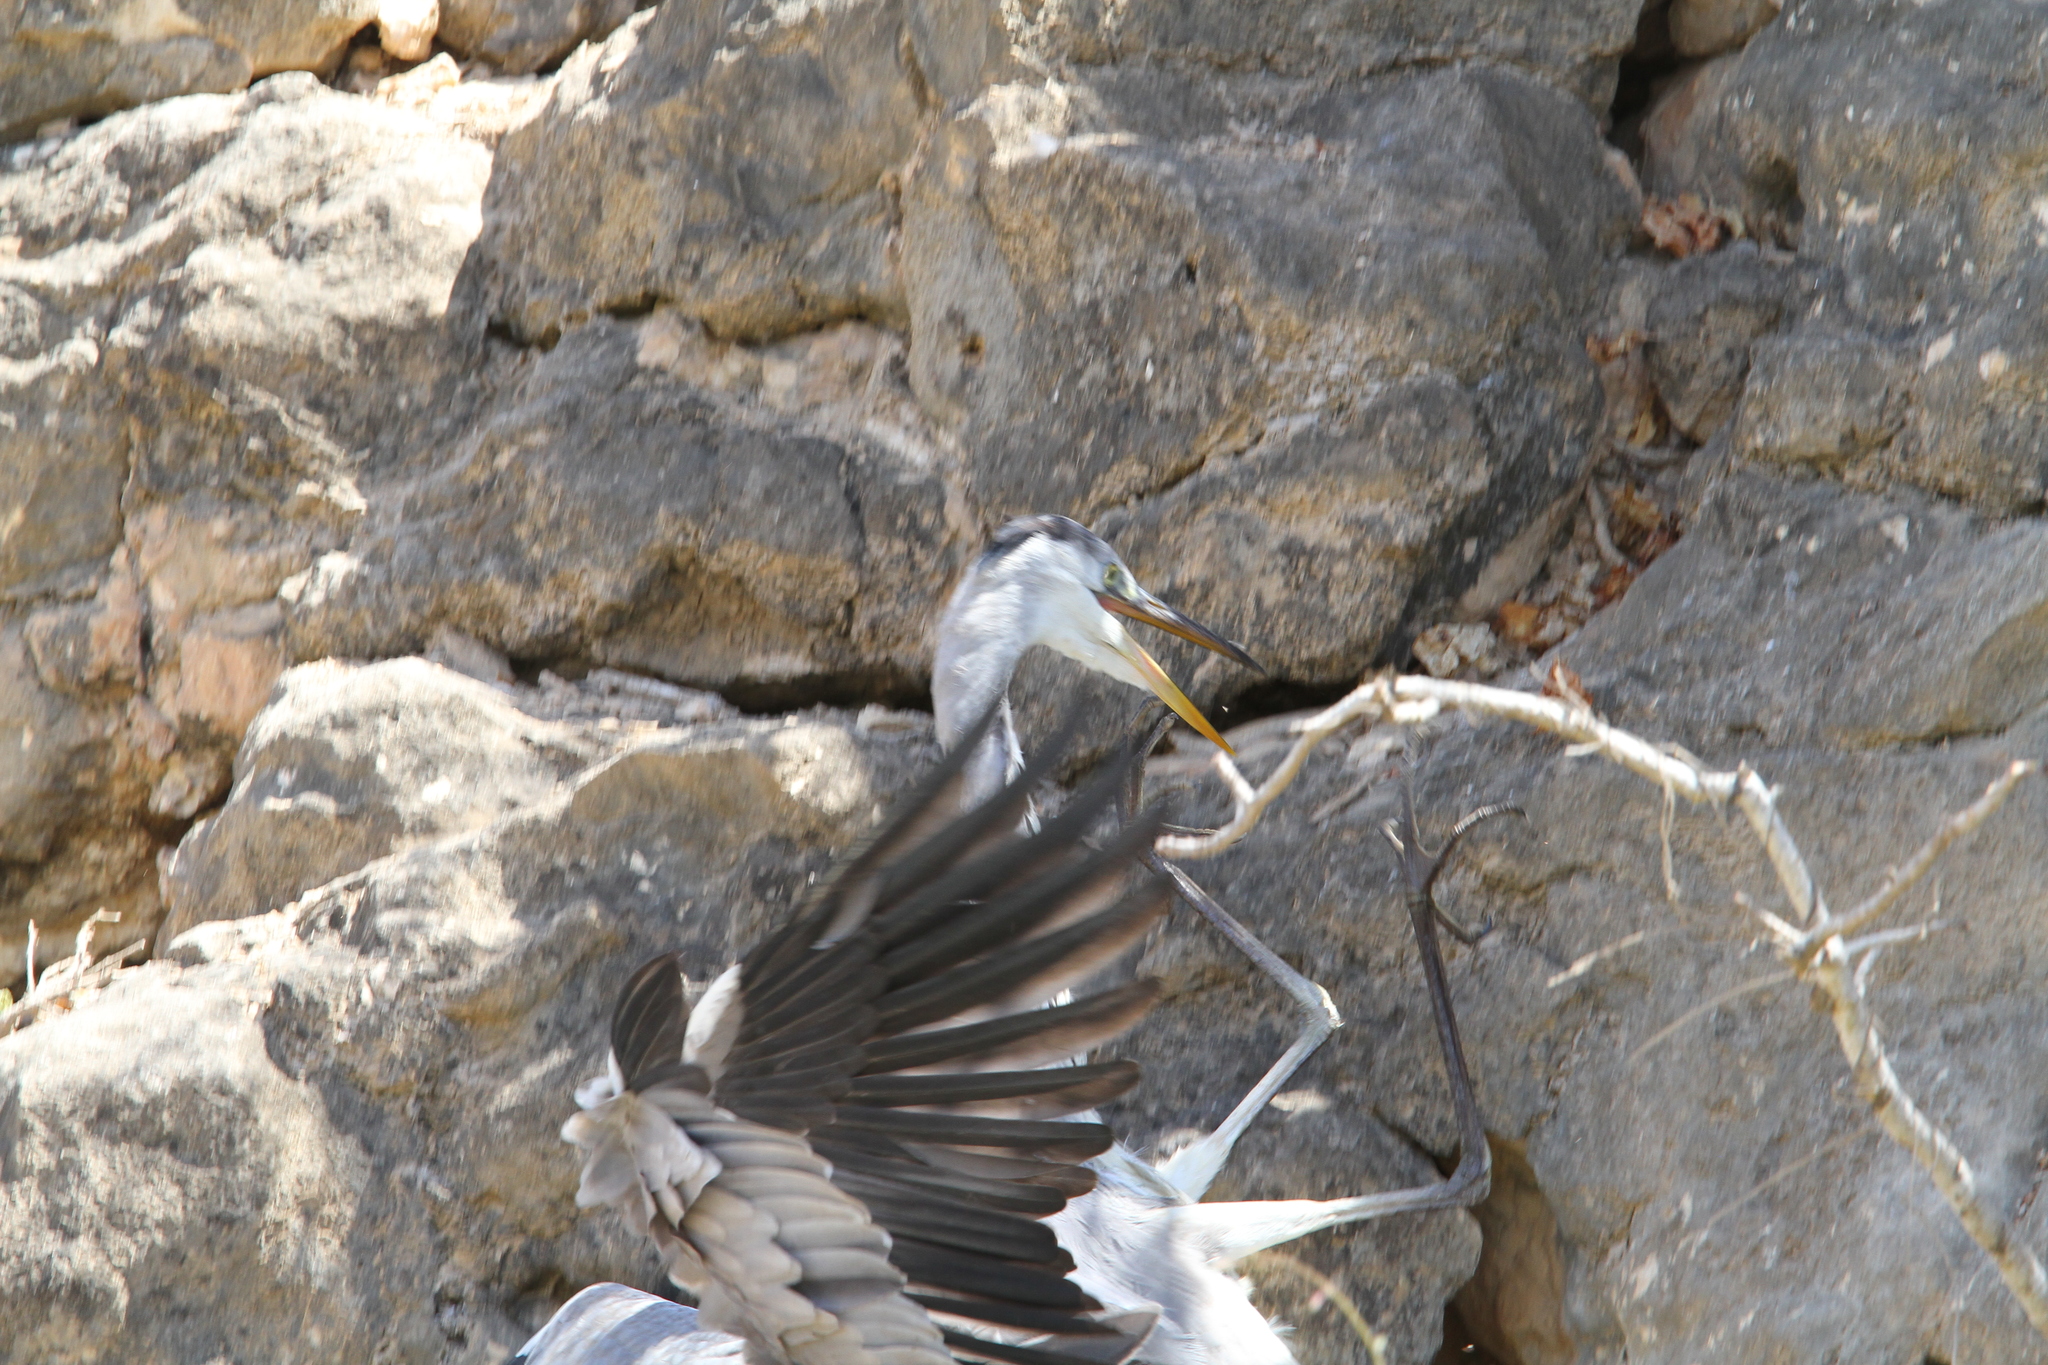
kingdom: Animalia
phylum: Chordata
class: Aves
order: Pelecaniformes
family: Ardeidae
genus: Ardea
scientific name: Ardea cinerea
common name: Grey heron
